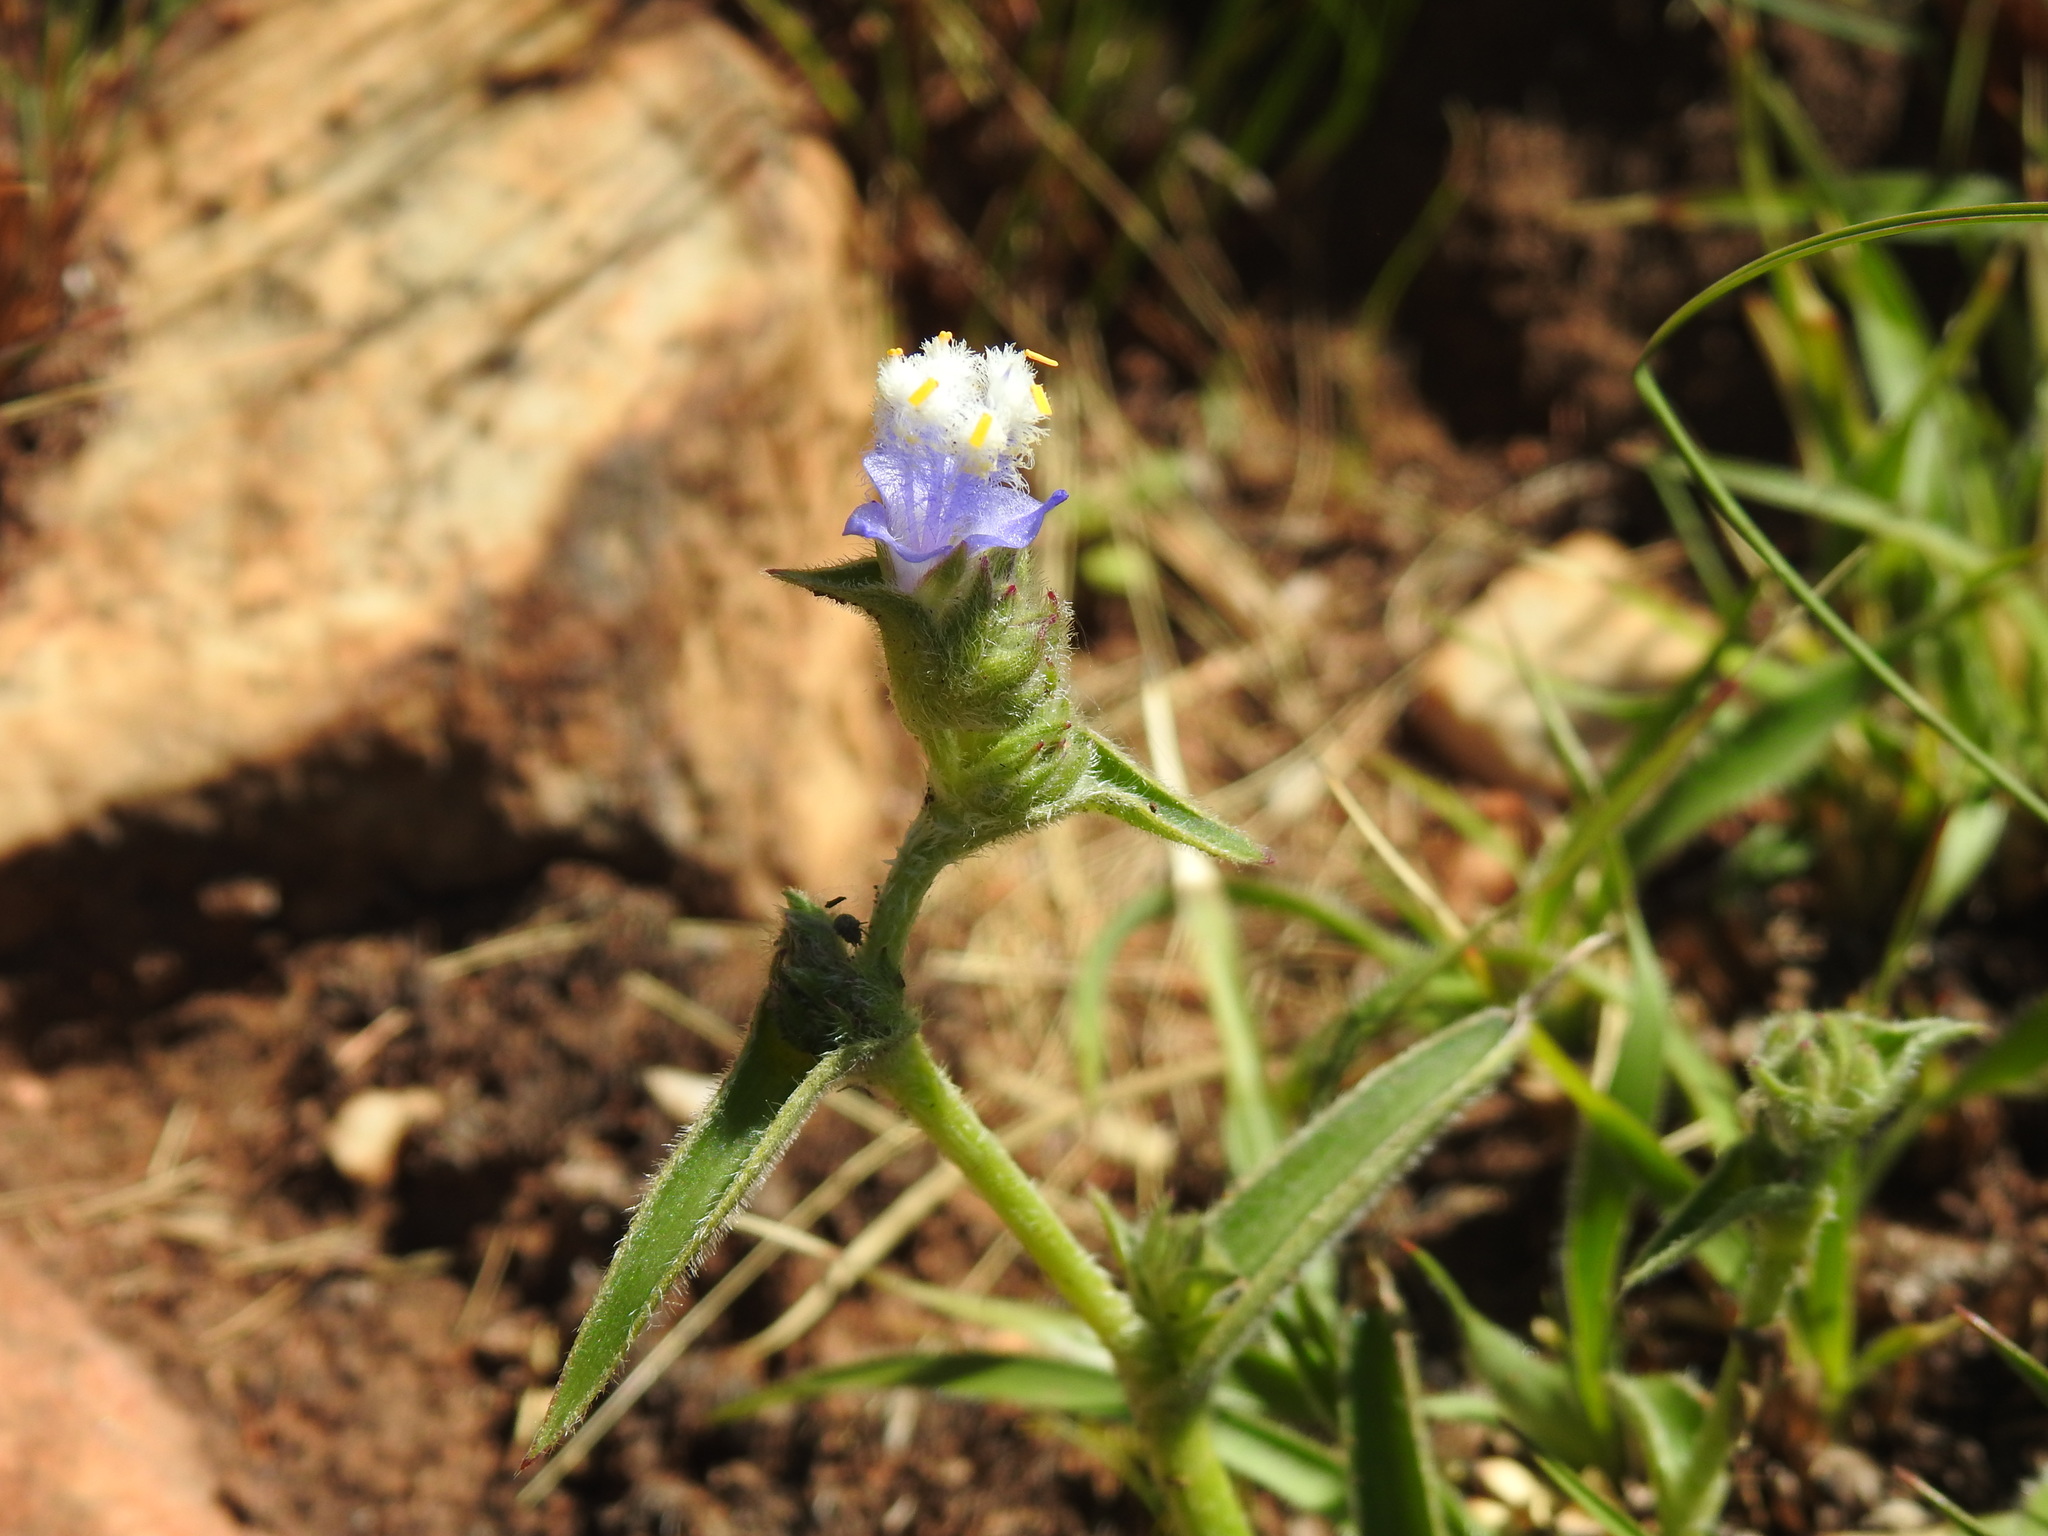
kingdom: Plantae
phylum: Tracheophyta
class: Liliopsida
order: Commelinales
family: Commelinaceae
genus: Cyanotis
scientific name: Cyanotis speciosa
